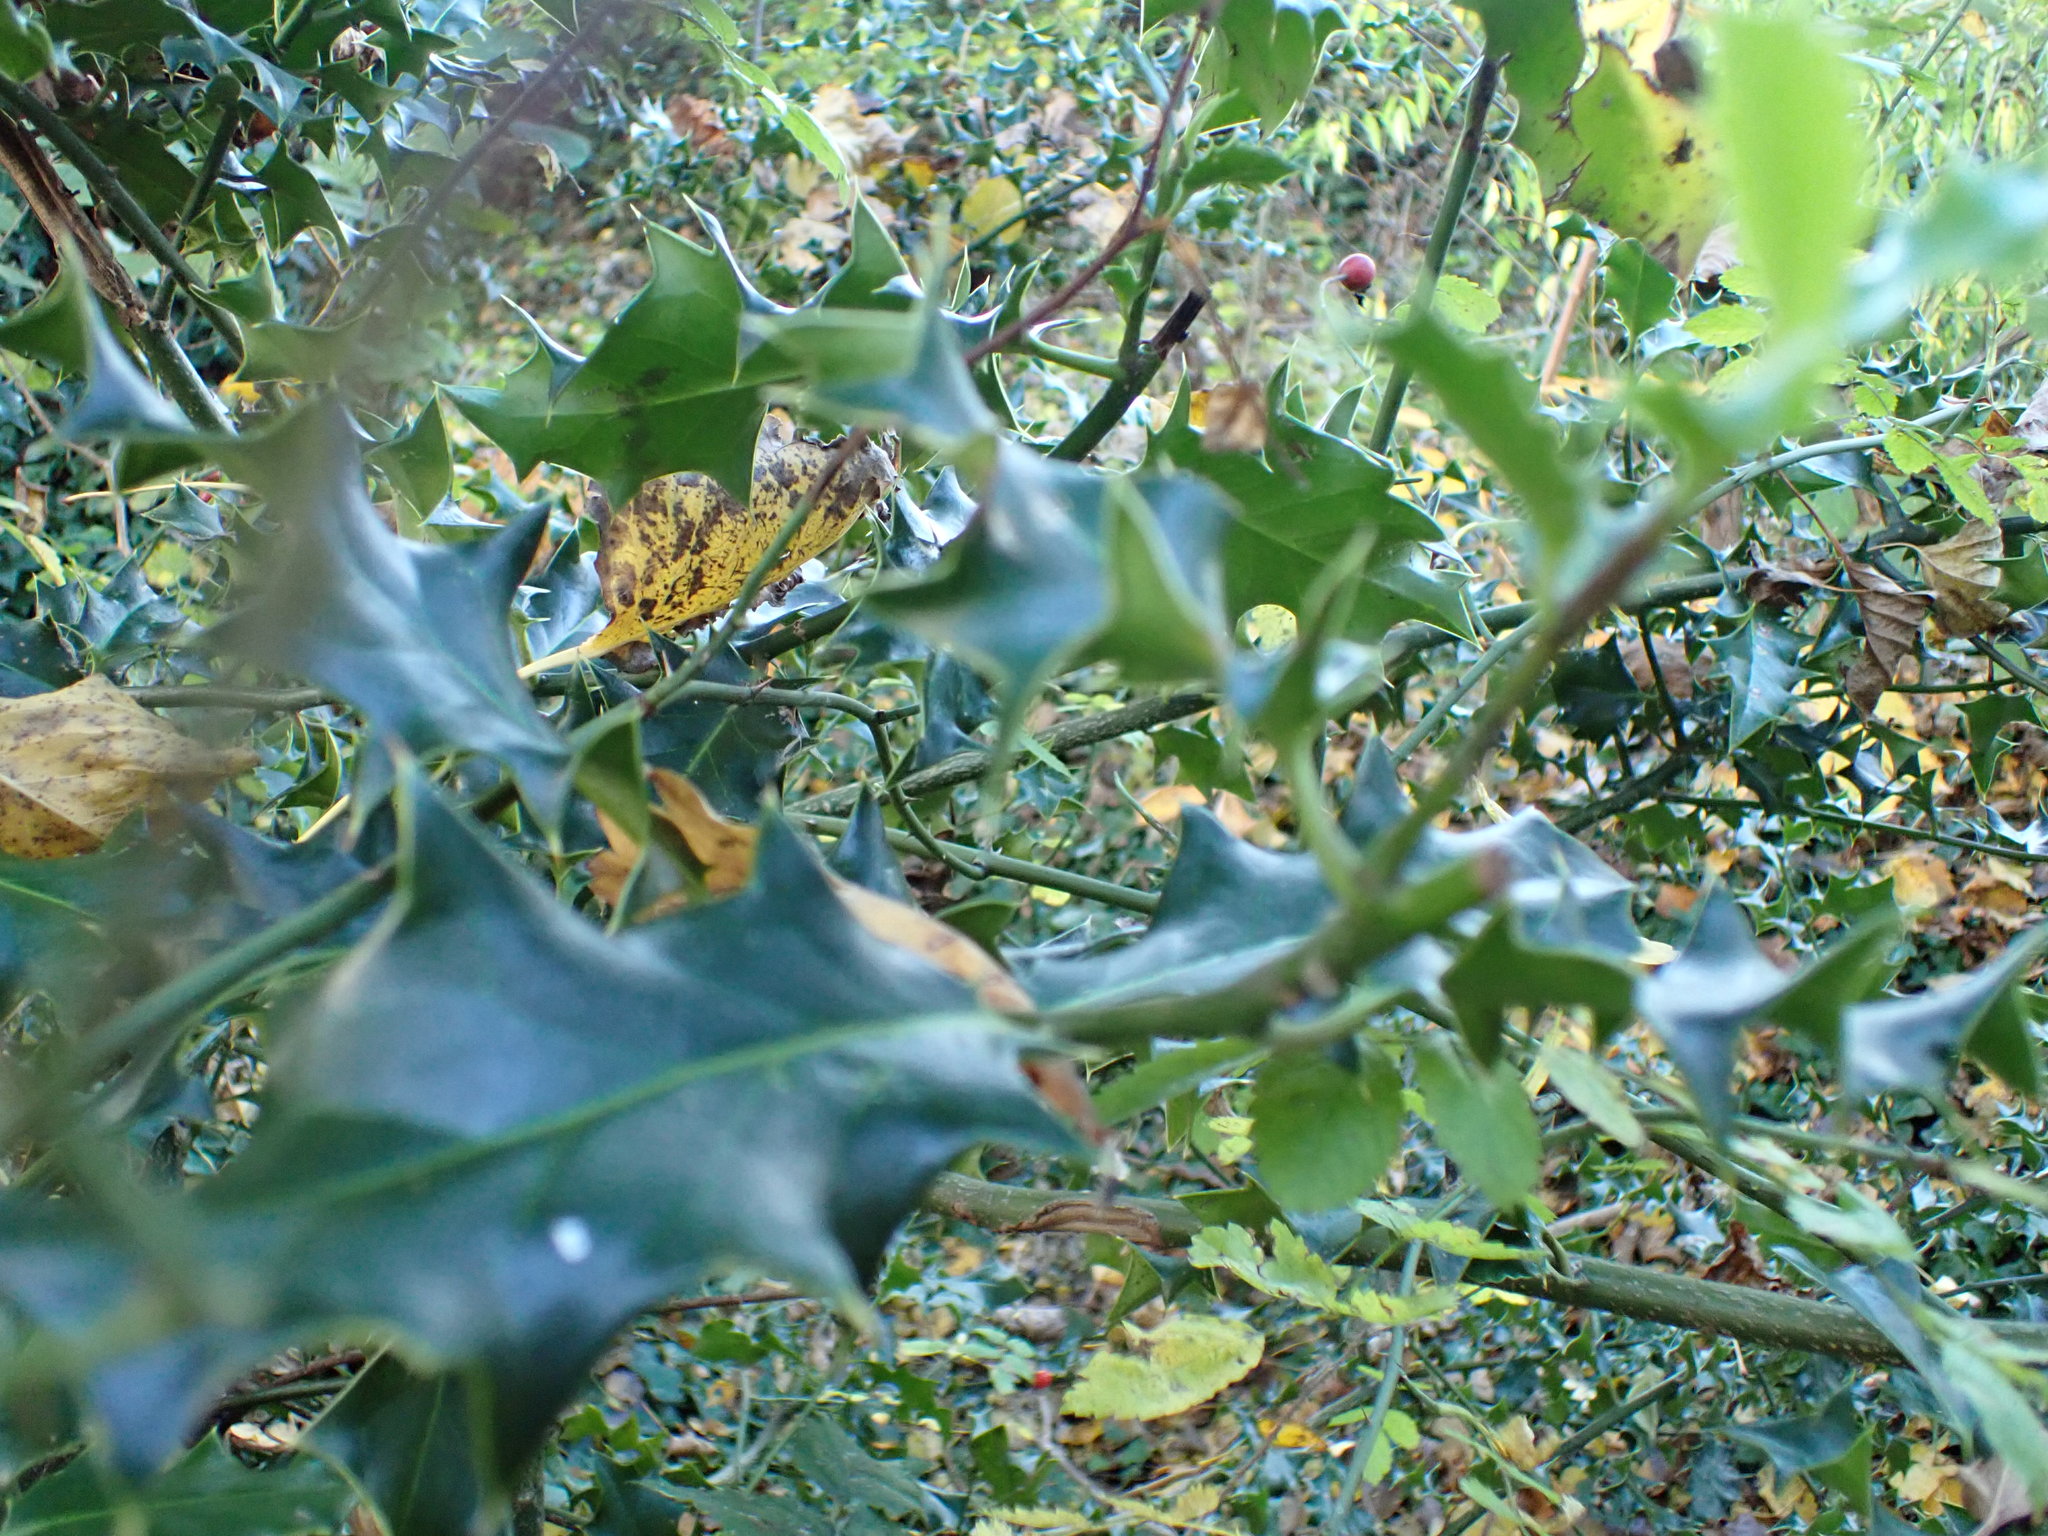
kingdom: Plantae
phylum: Tracheophyta
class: Magnoliopsida
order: Aquifoliales
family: Aquifoliaceae
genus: Ilex
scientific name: Ilex aquifolium
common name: English holly
